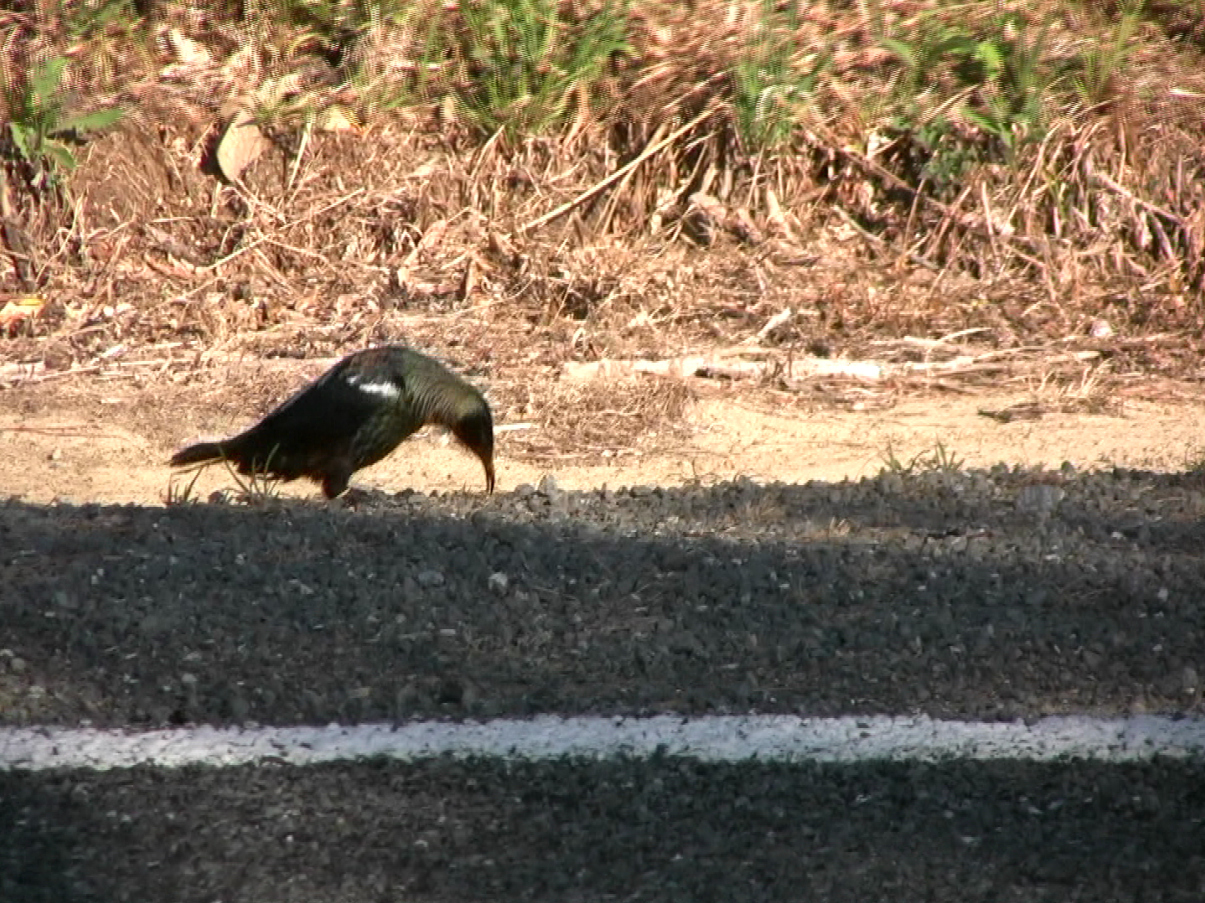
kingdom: Animalia
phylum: Chordata
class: Aves
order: Passeriformes
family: Meliphagidae
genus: Prosthemadera
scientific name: Prosthemadera novaeseelandiae
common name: Tui
